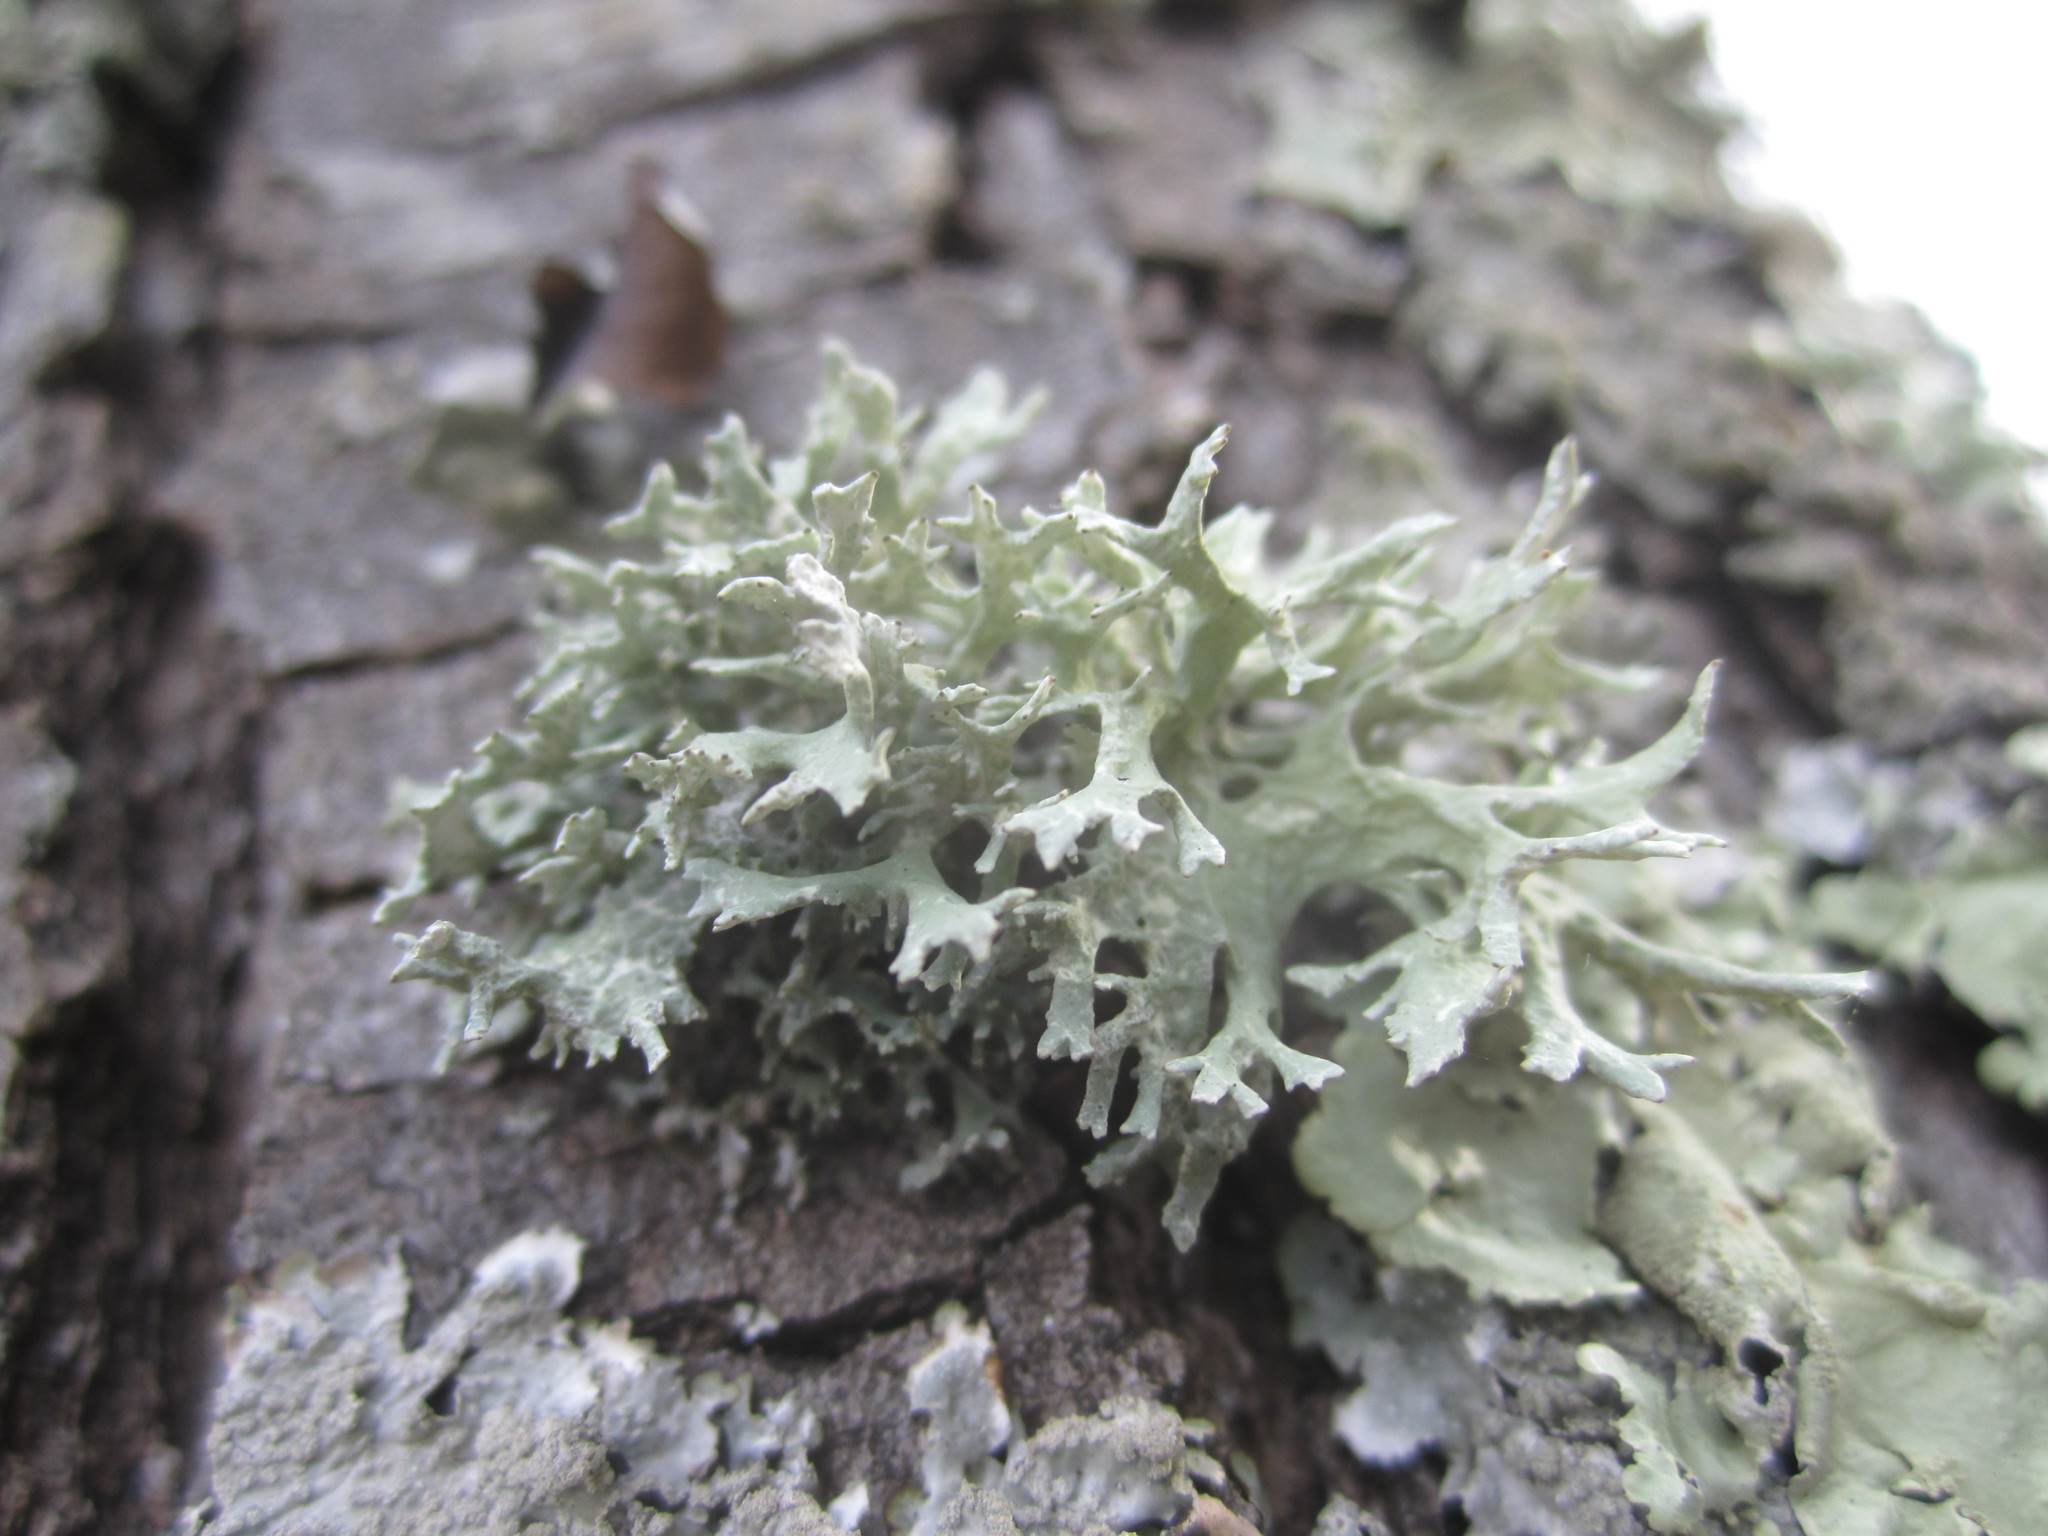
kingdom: Fungi
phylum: Ascomycota
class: Lecanoromycetes
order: Lecanorales
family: Parmeliaceae
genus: Evernia
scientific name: Evernia prunastri
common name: Oak moss
